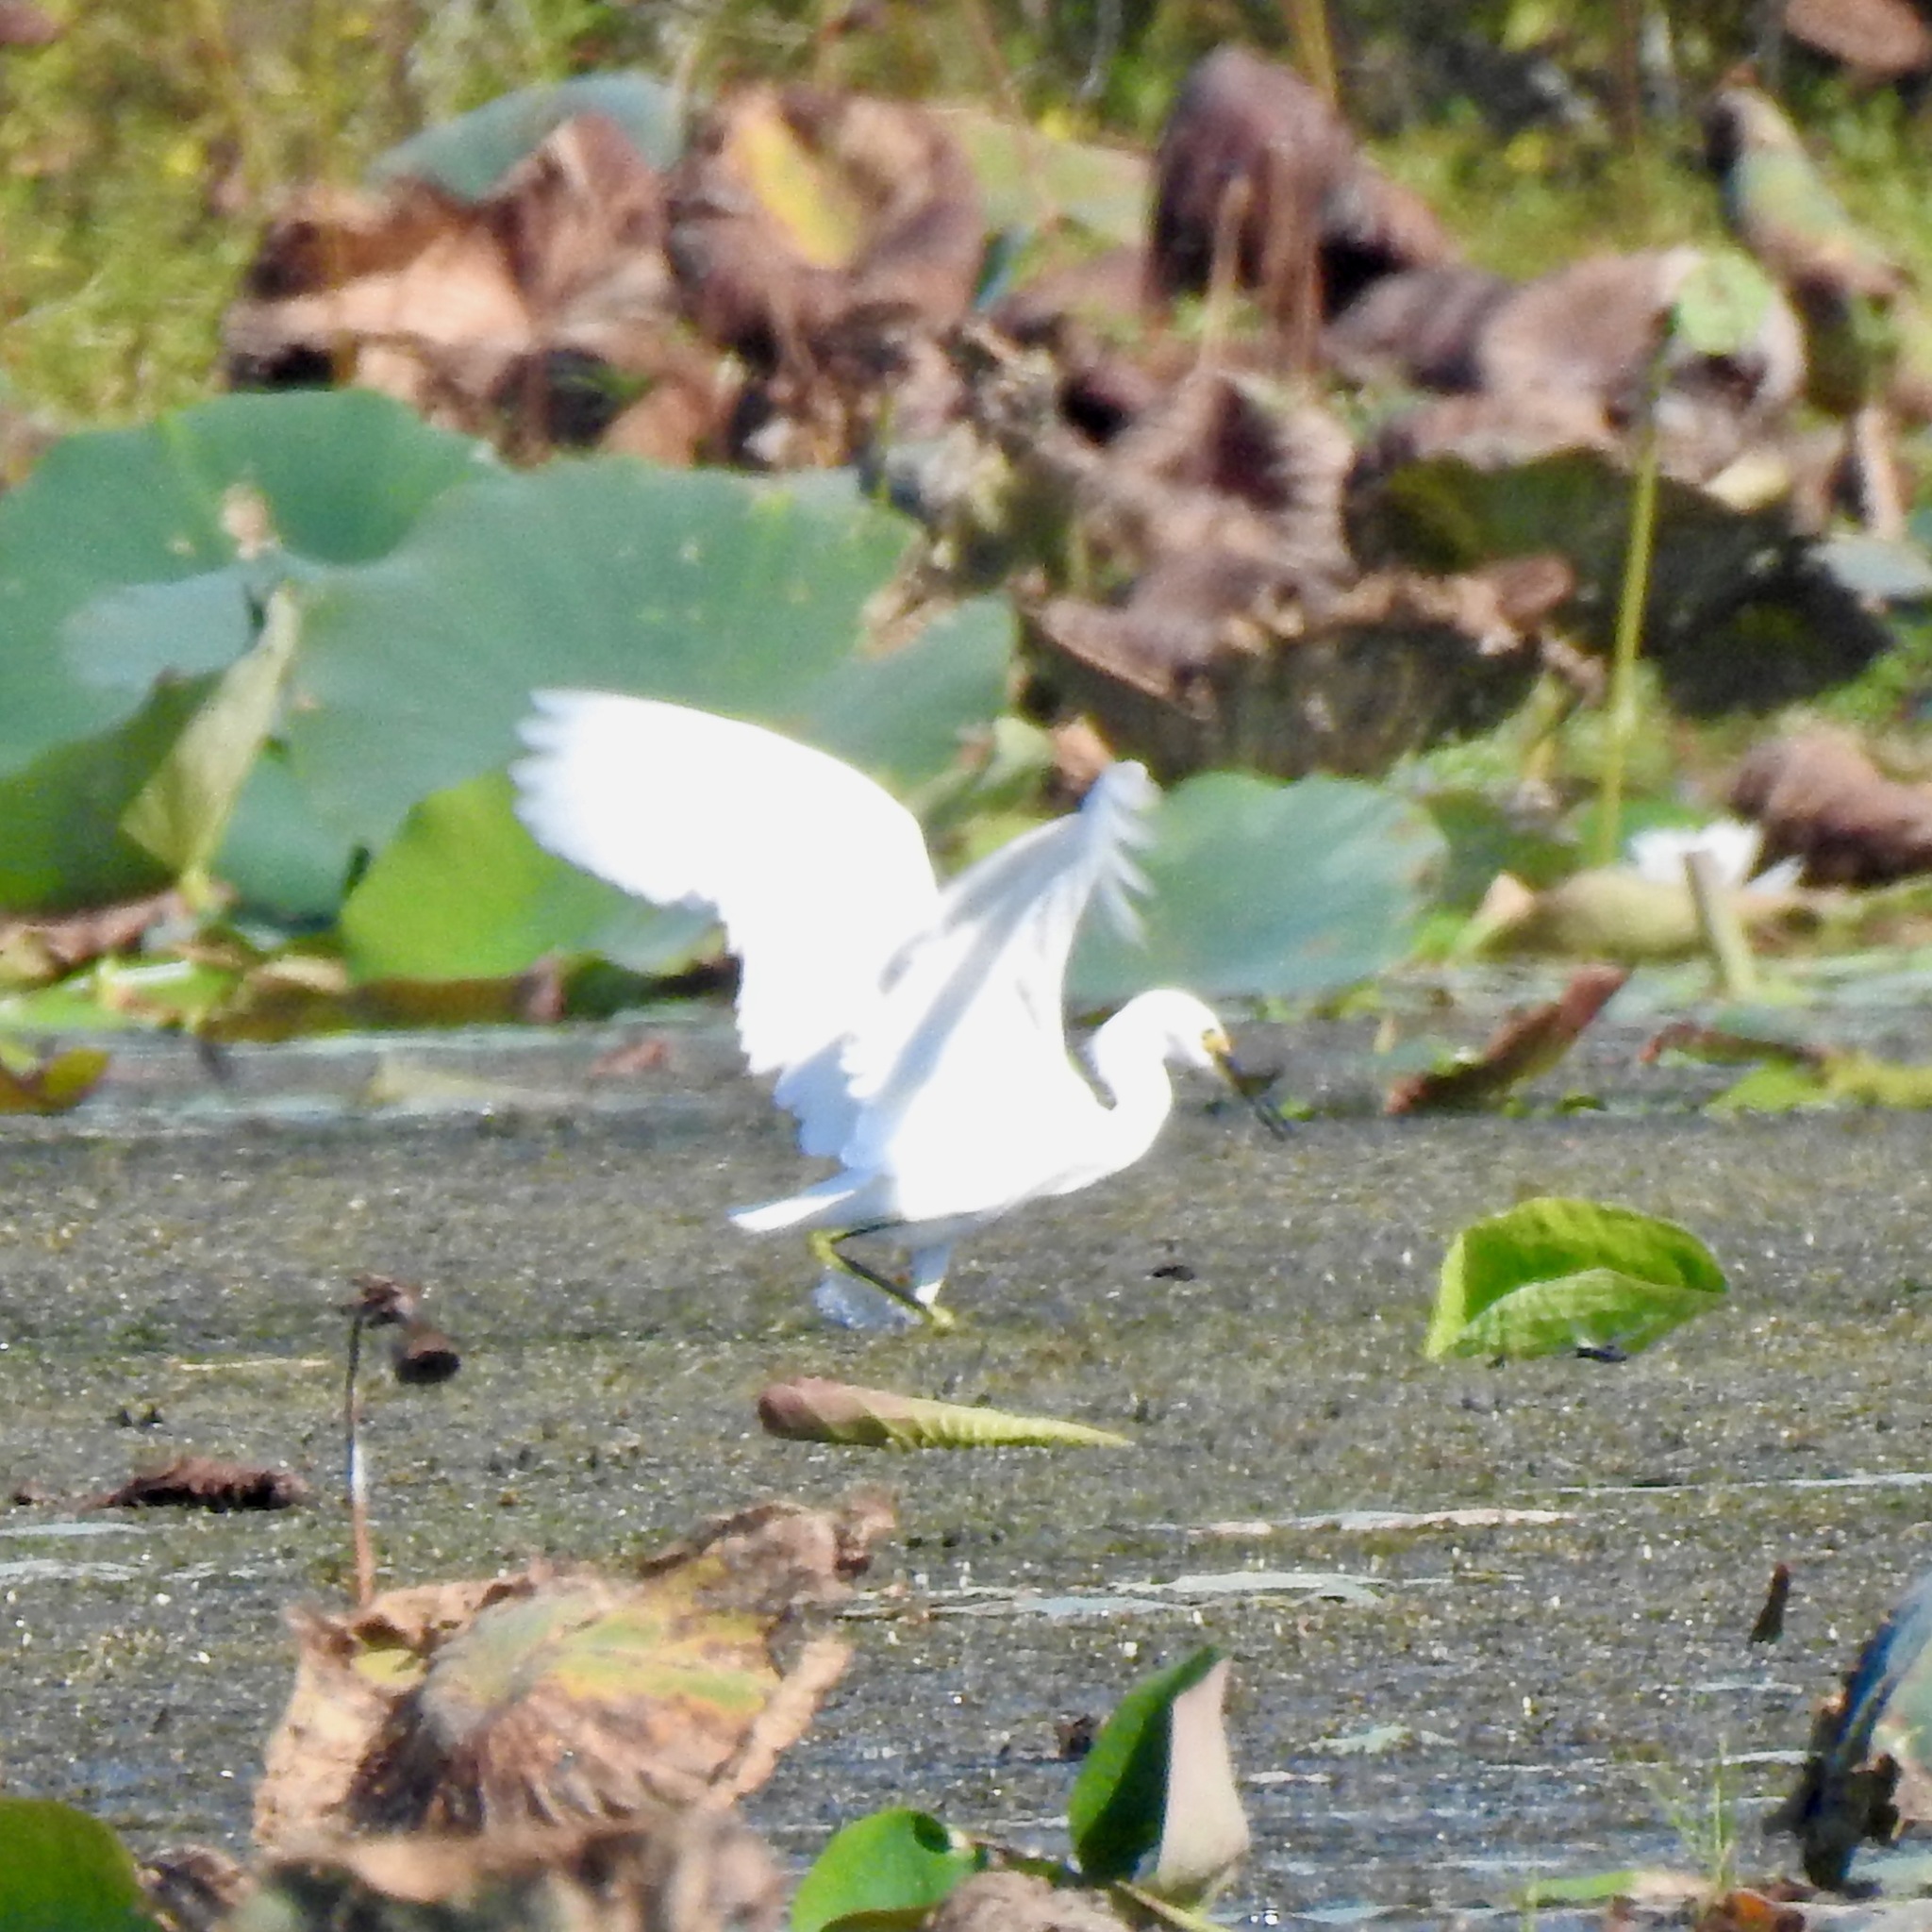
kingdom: Animalia
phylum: Chordata
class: Aves
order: Pelecaniformes
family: Ardeidae
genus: Egretta
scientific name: Egretta thula
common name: Snowy egret
